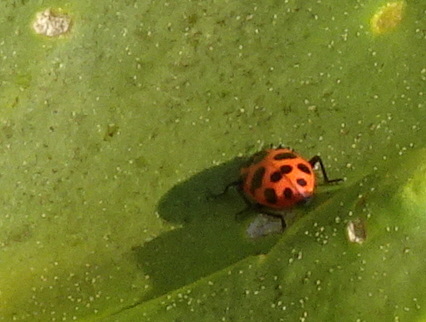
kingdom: Animalia
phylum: Arthropoda
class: Insecta
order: Coleoptera
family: Coccinellidae
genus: Coleomegilla
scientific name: Coleomegilla maculata
